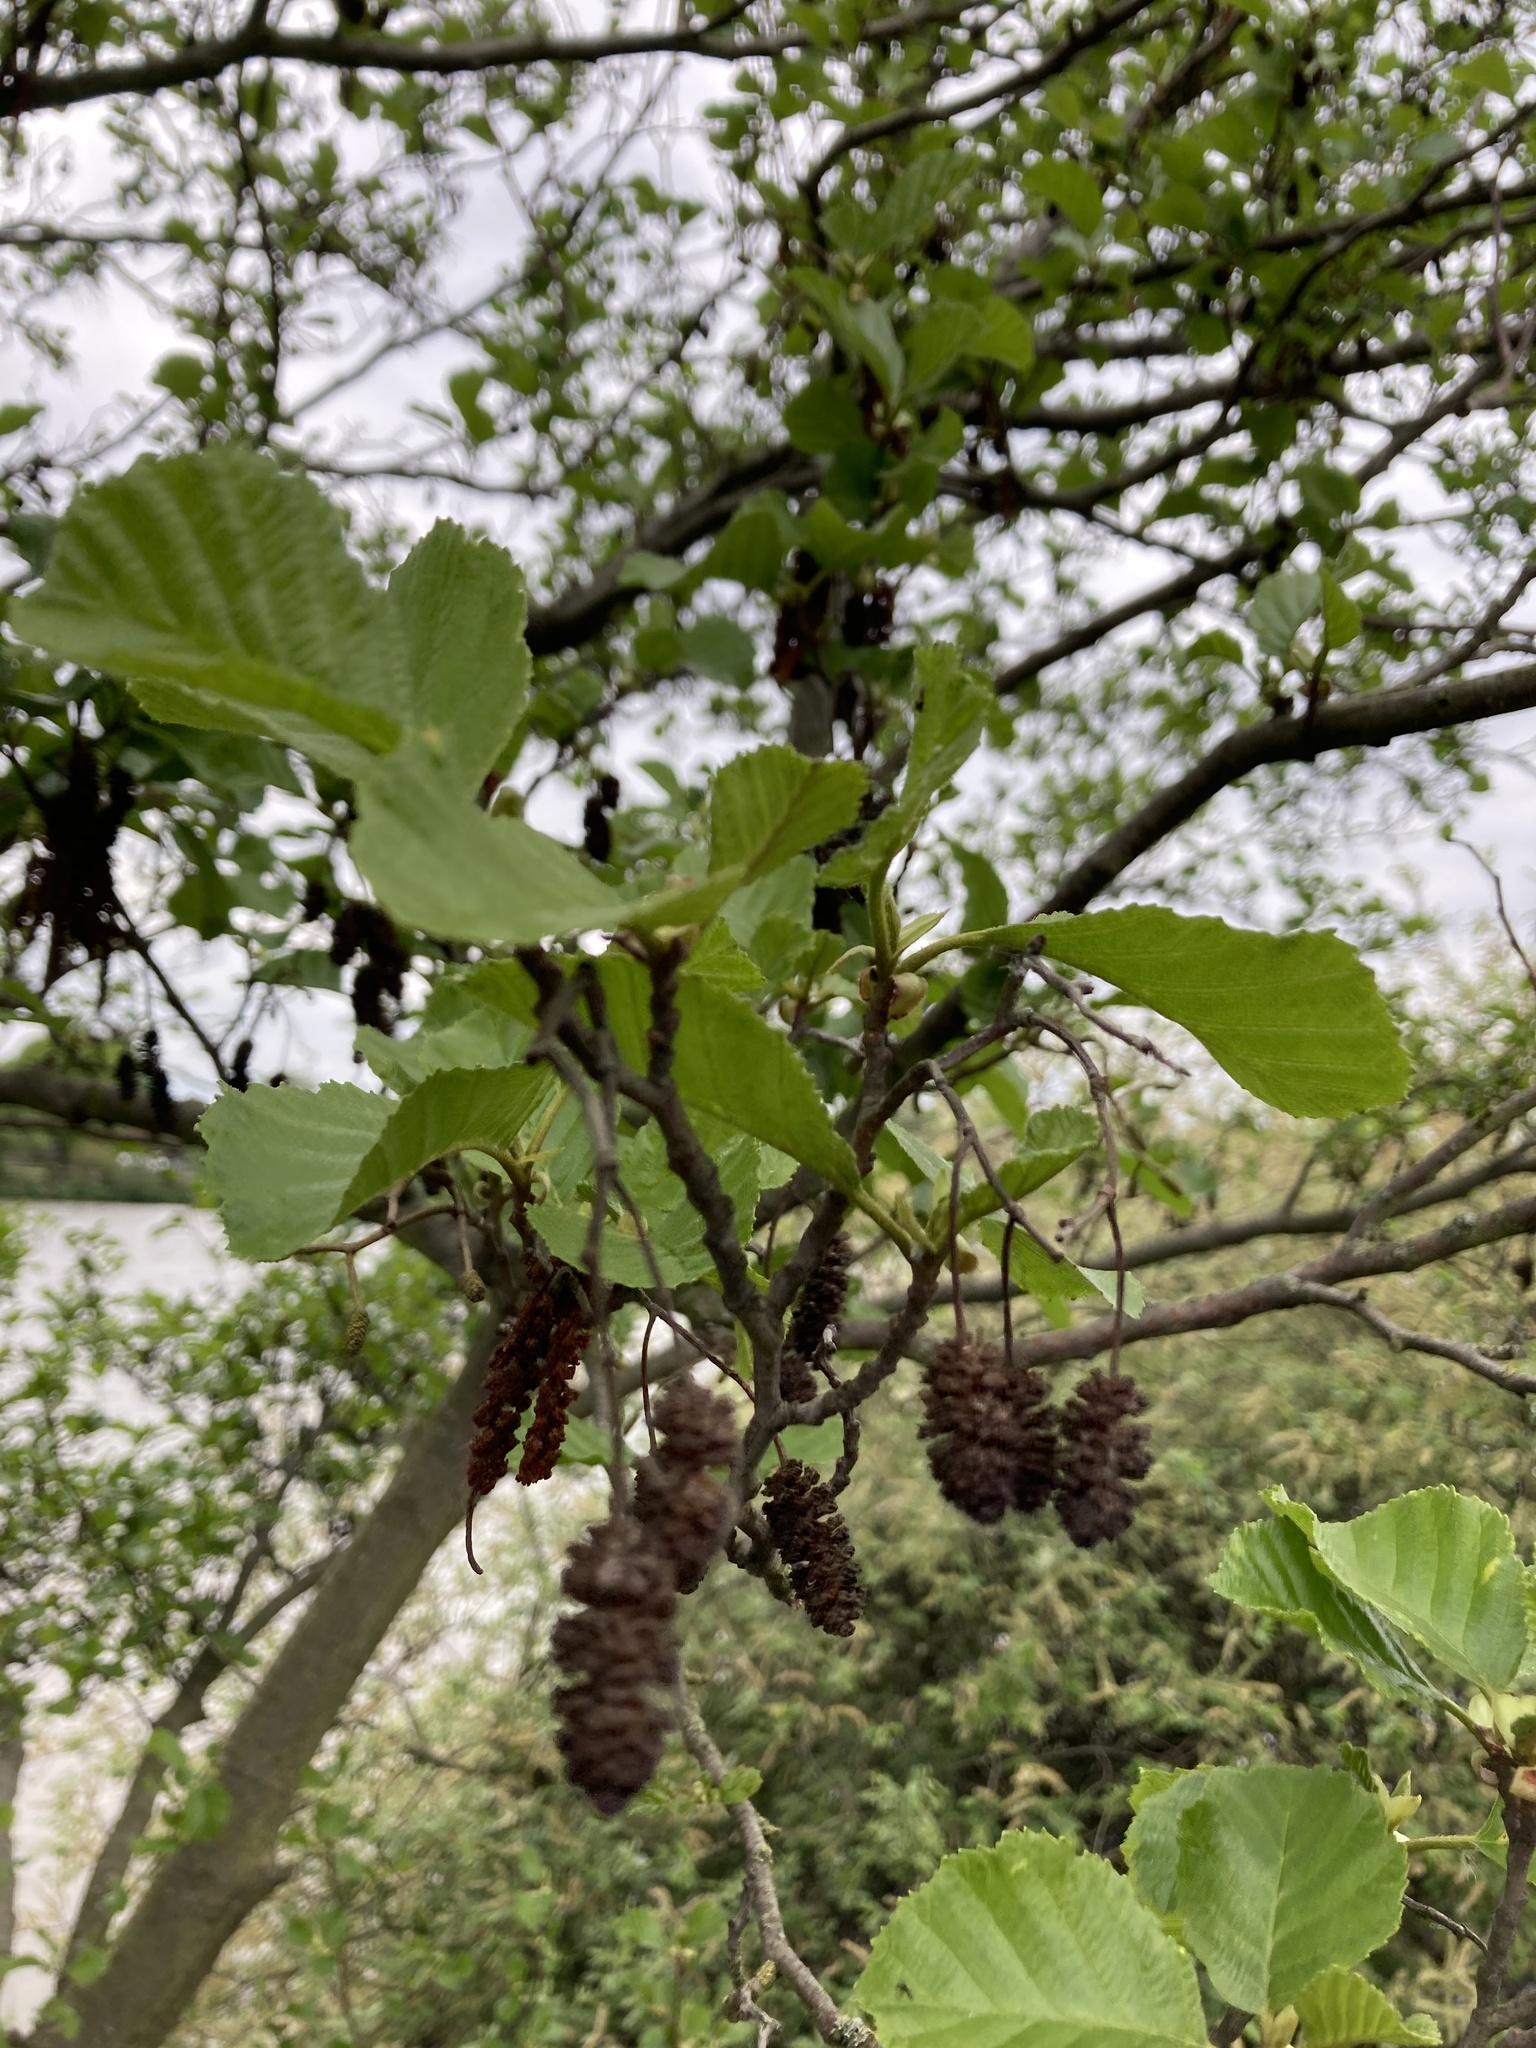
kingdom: Plantae
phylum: Tracheophyta
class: Magnoliopsida
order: Fagales
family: Betulaceae
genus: Alnus
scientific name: Alnus glutinosa
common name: Black alder
